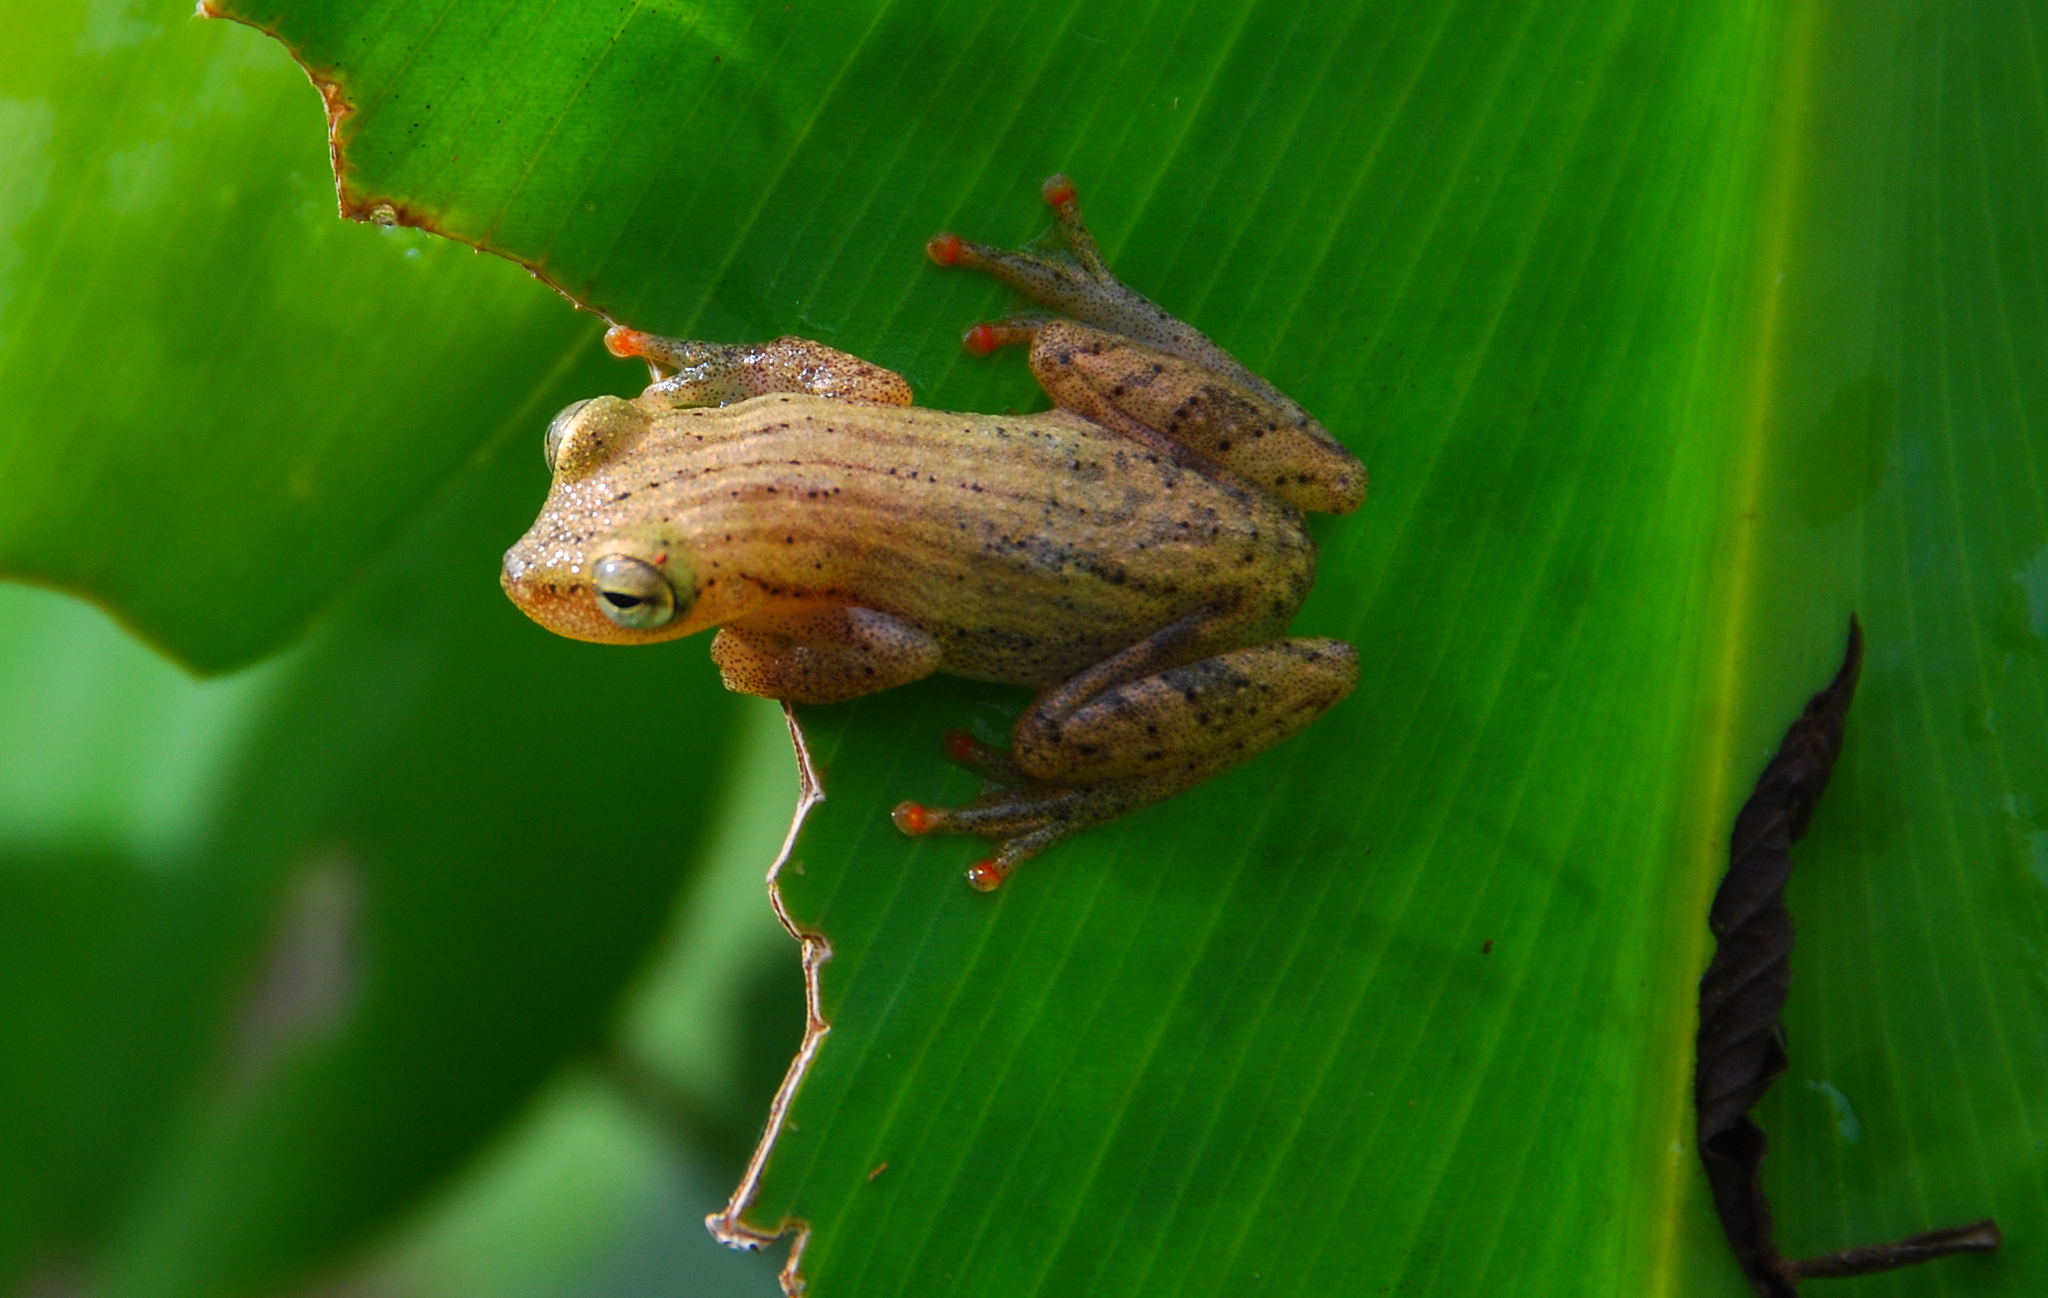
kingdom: Animalia
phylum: Chordata
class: Amphibia
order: Anura
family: Hylidae
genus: Dendropsophus
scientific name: Dendropsophus haraldschultzi
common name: Harald's treefrog
